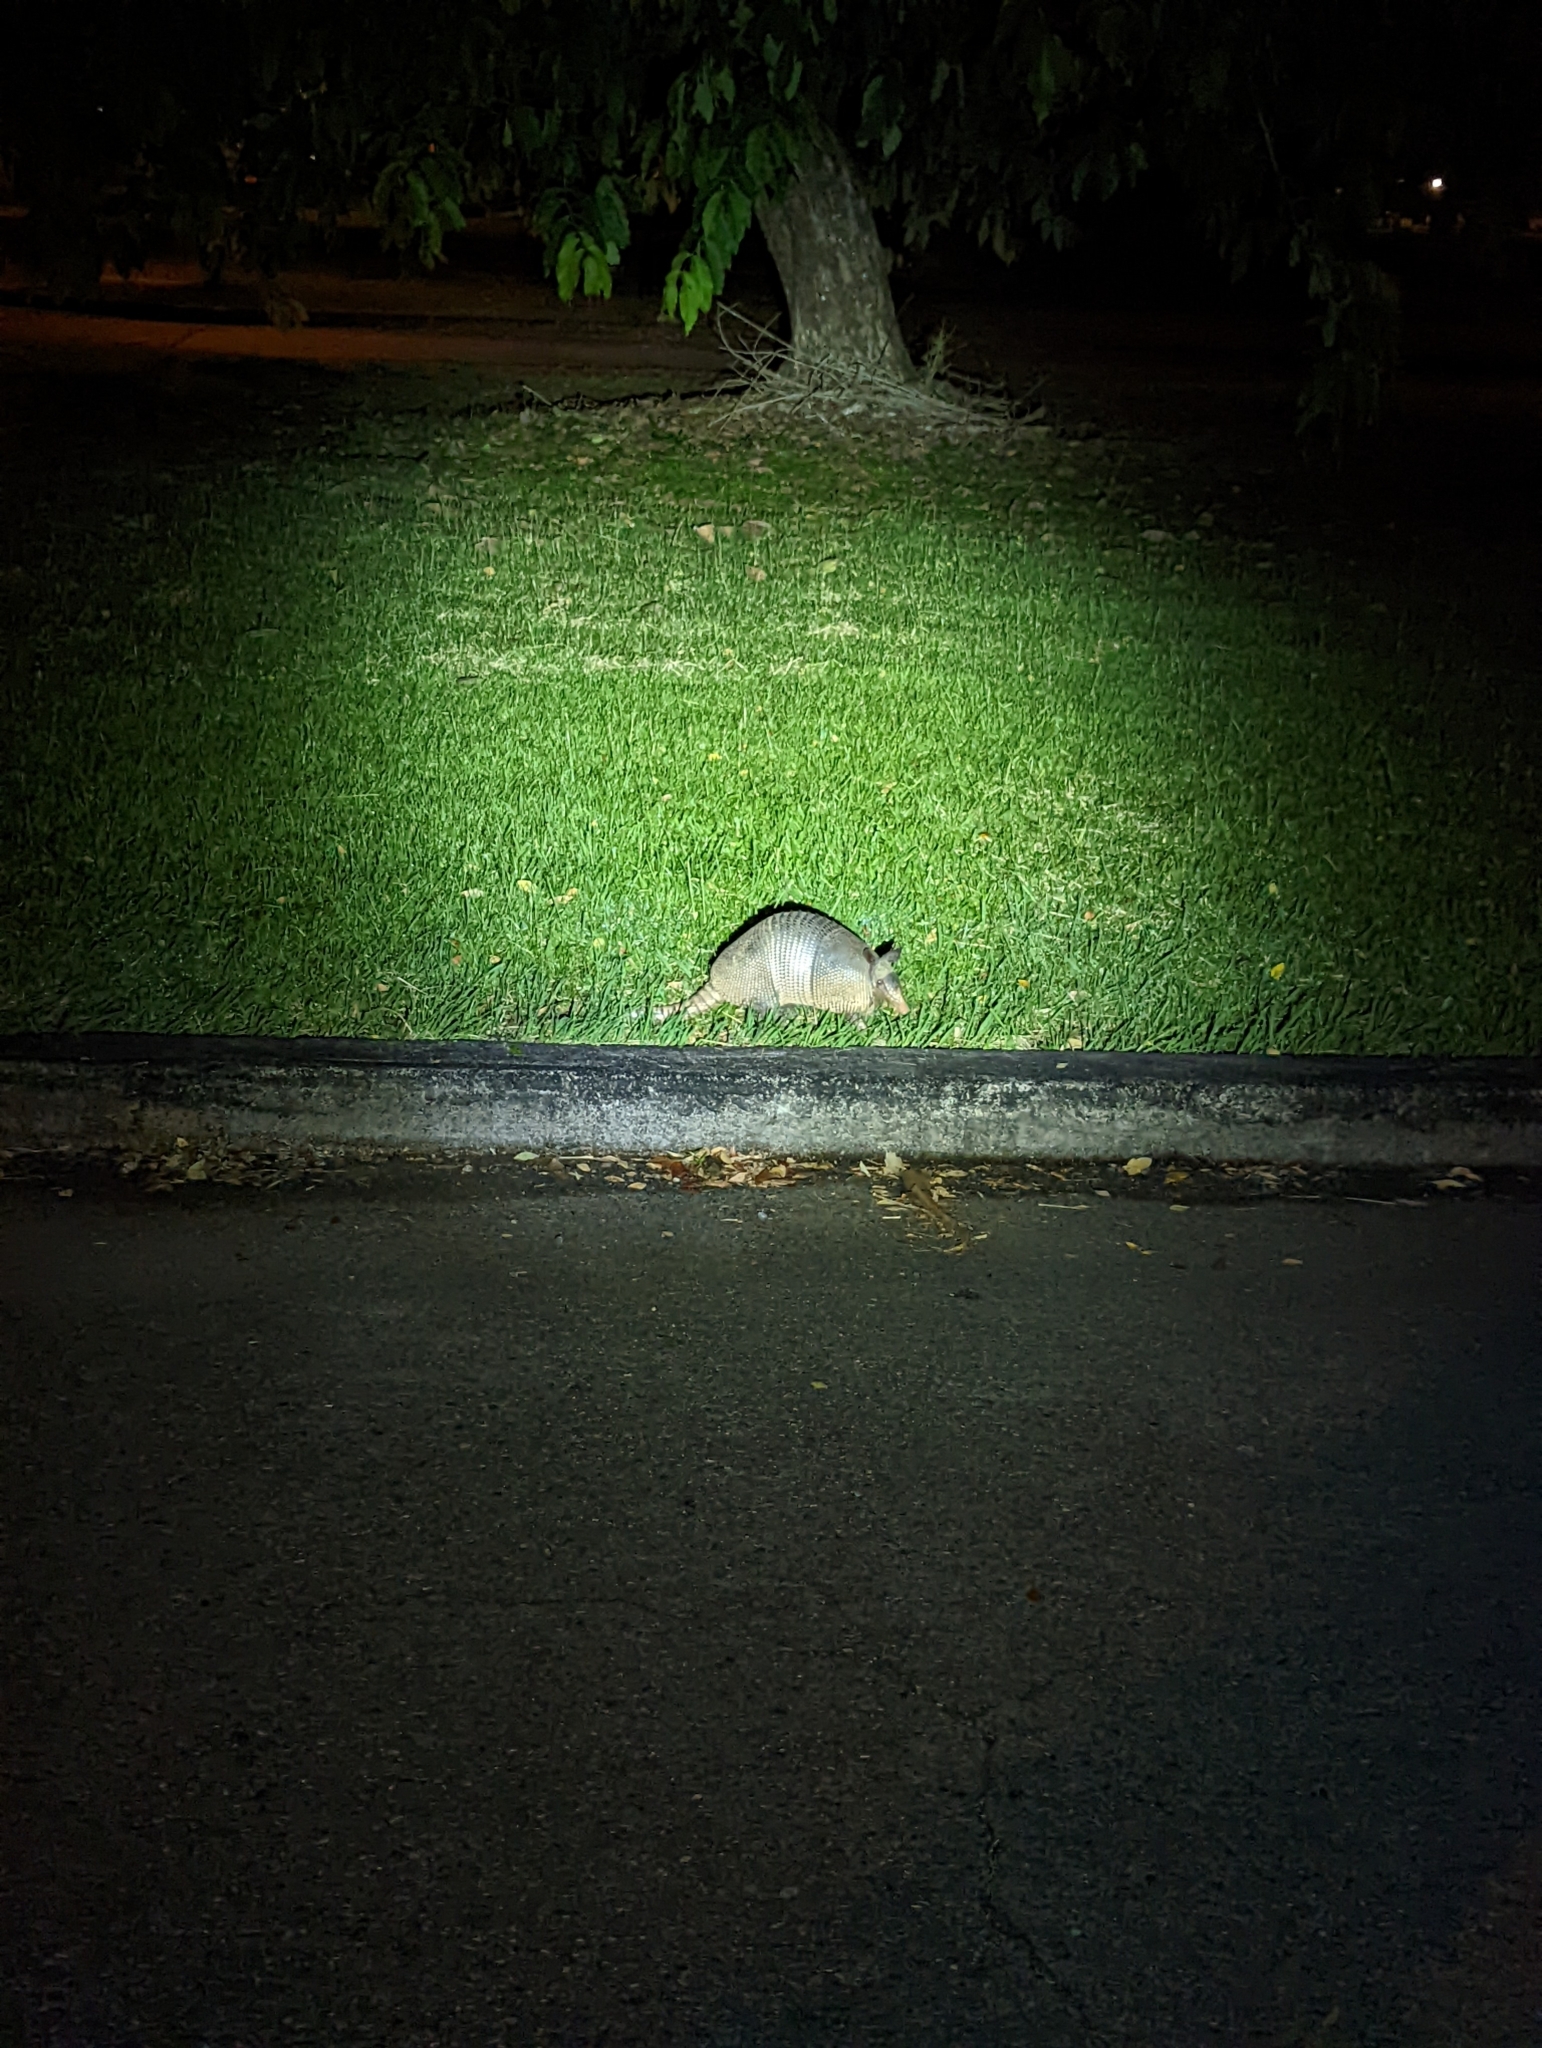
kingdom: Animalia
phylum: Chordata
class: Mammalia
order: Cingulata
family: Dasypodidae
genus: Dasypus
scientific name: Dasypus novemcinctus
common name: Nine-banded armadillo
